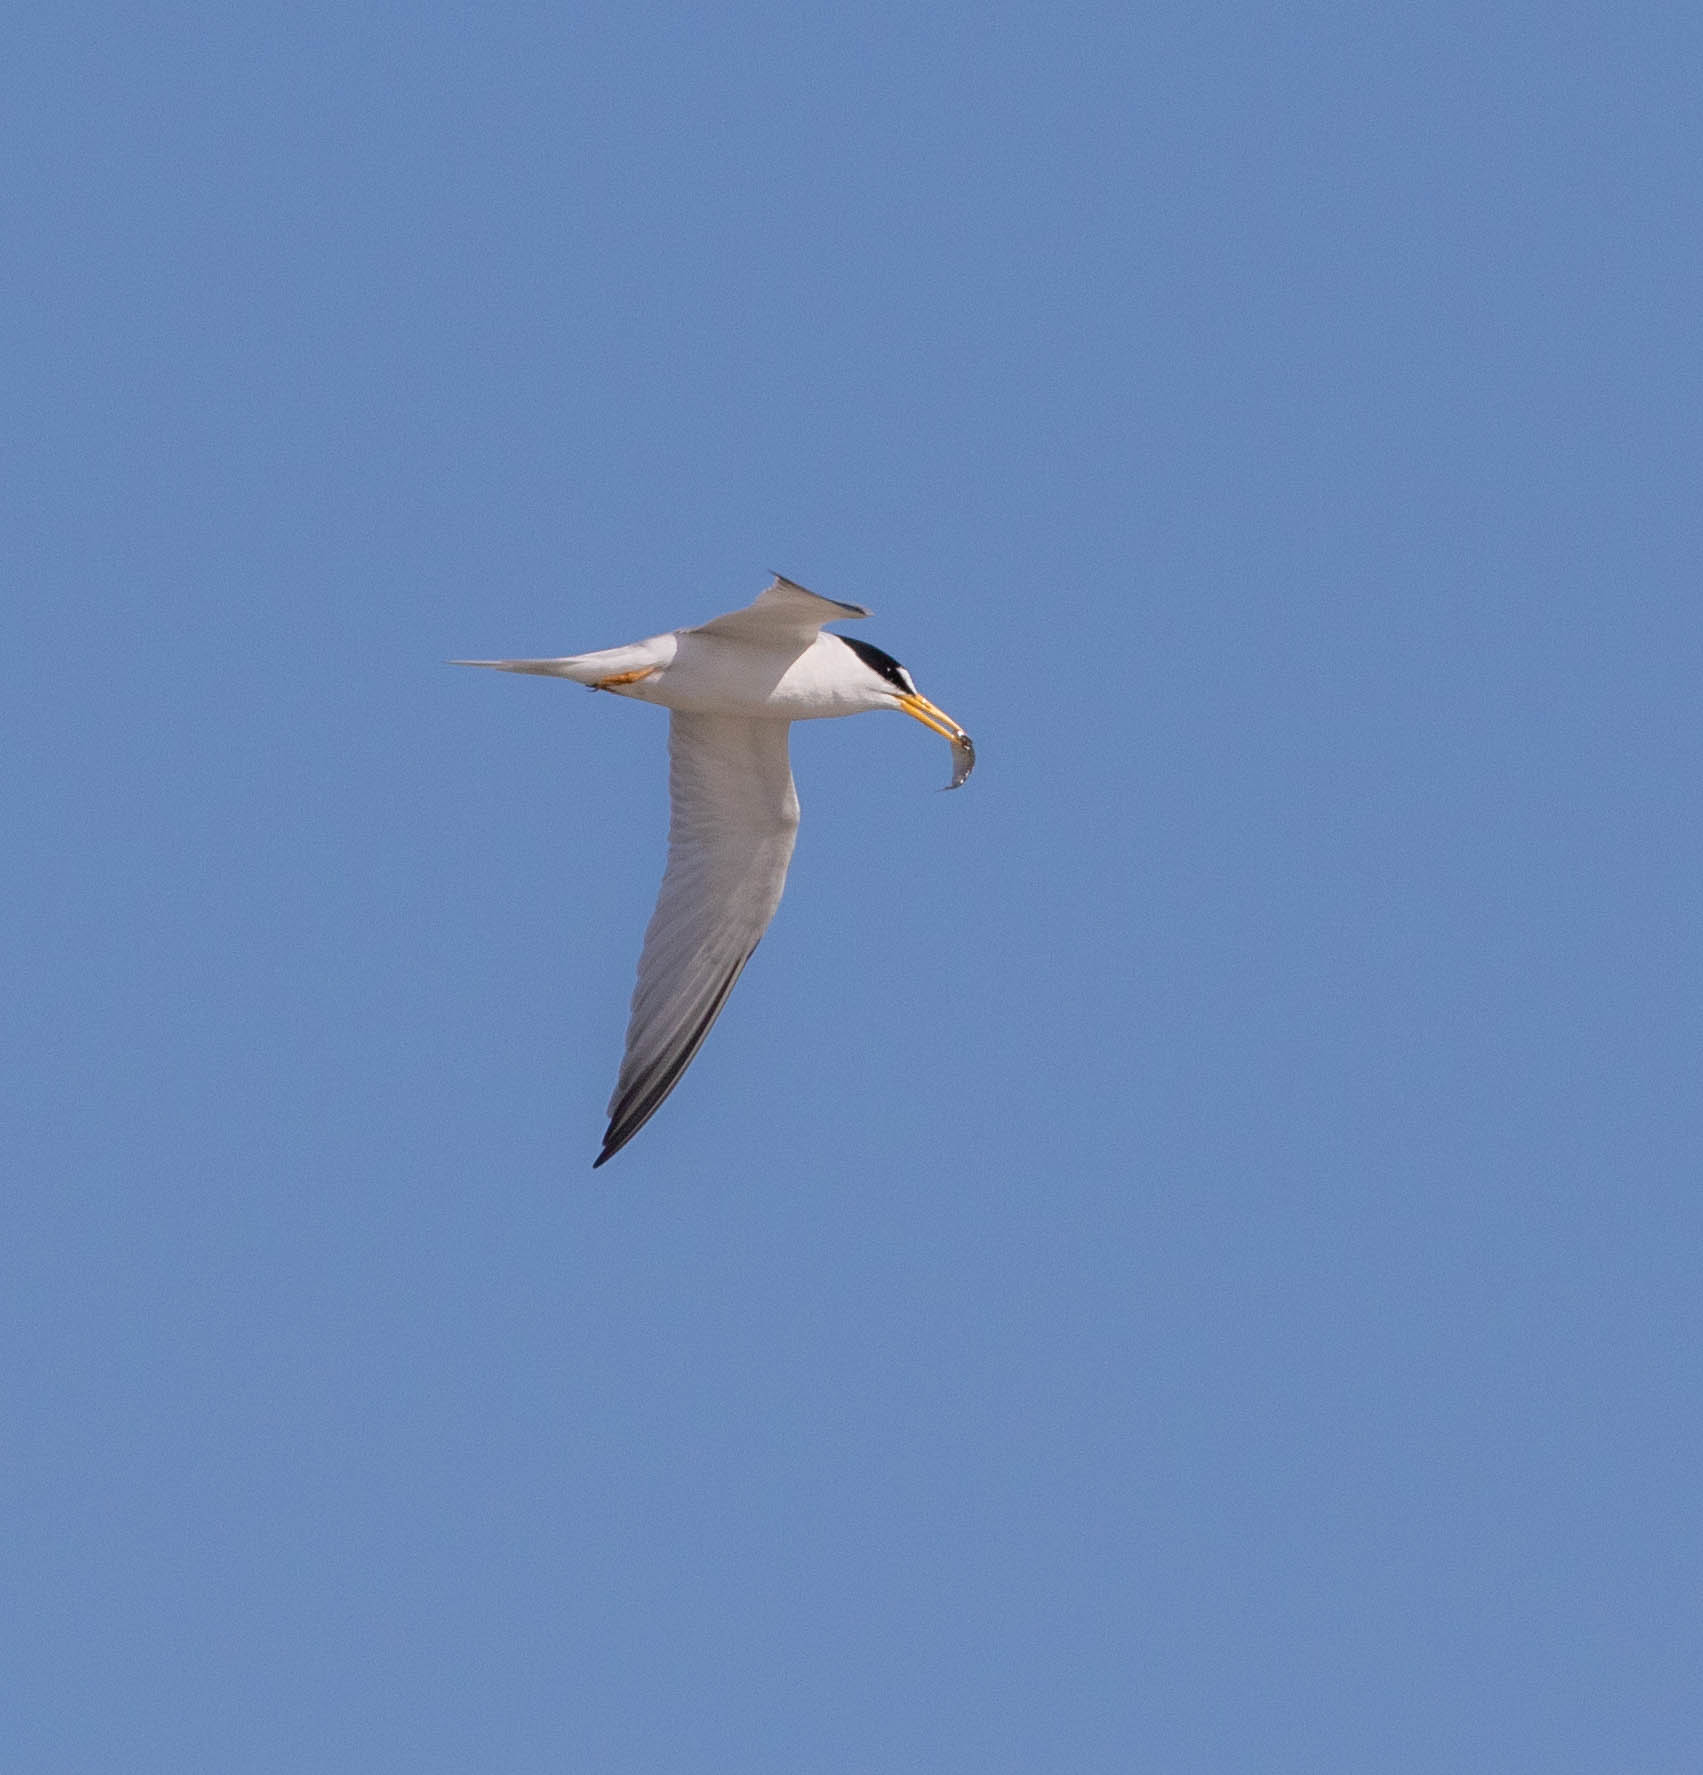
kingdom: Animalia
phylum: Chordata
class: Aves
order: Charadriiformes
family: Laridae
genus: Sternula
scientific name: Sternula antillarum
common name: Least tern
